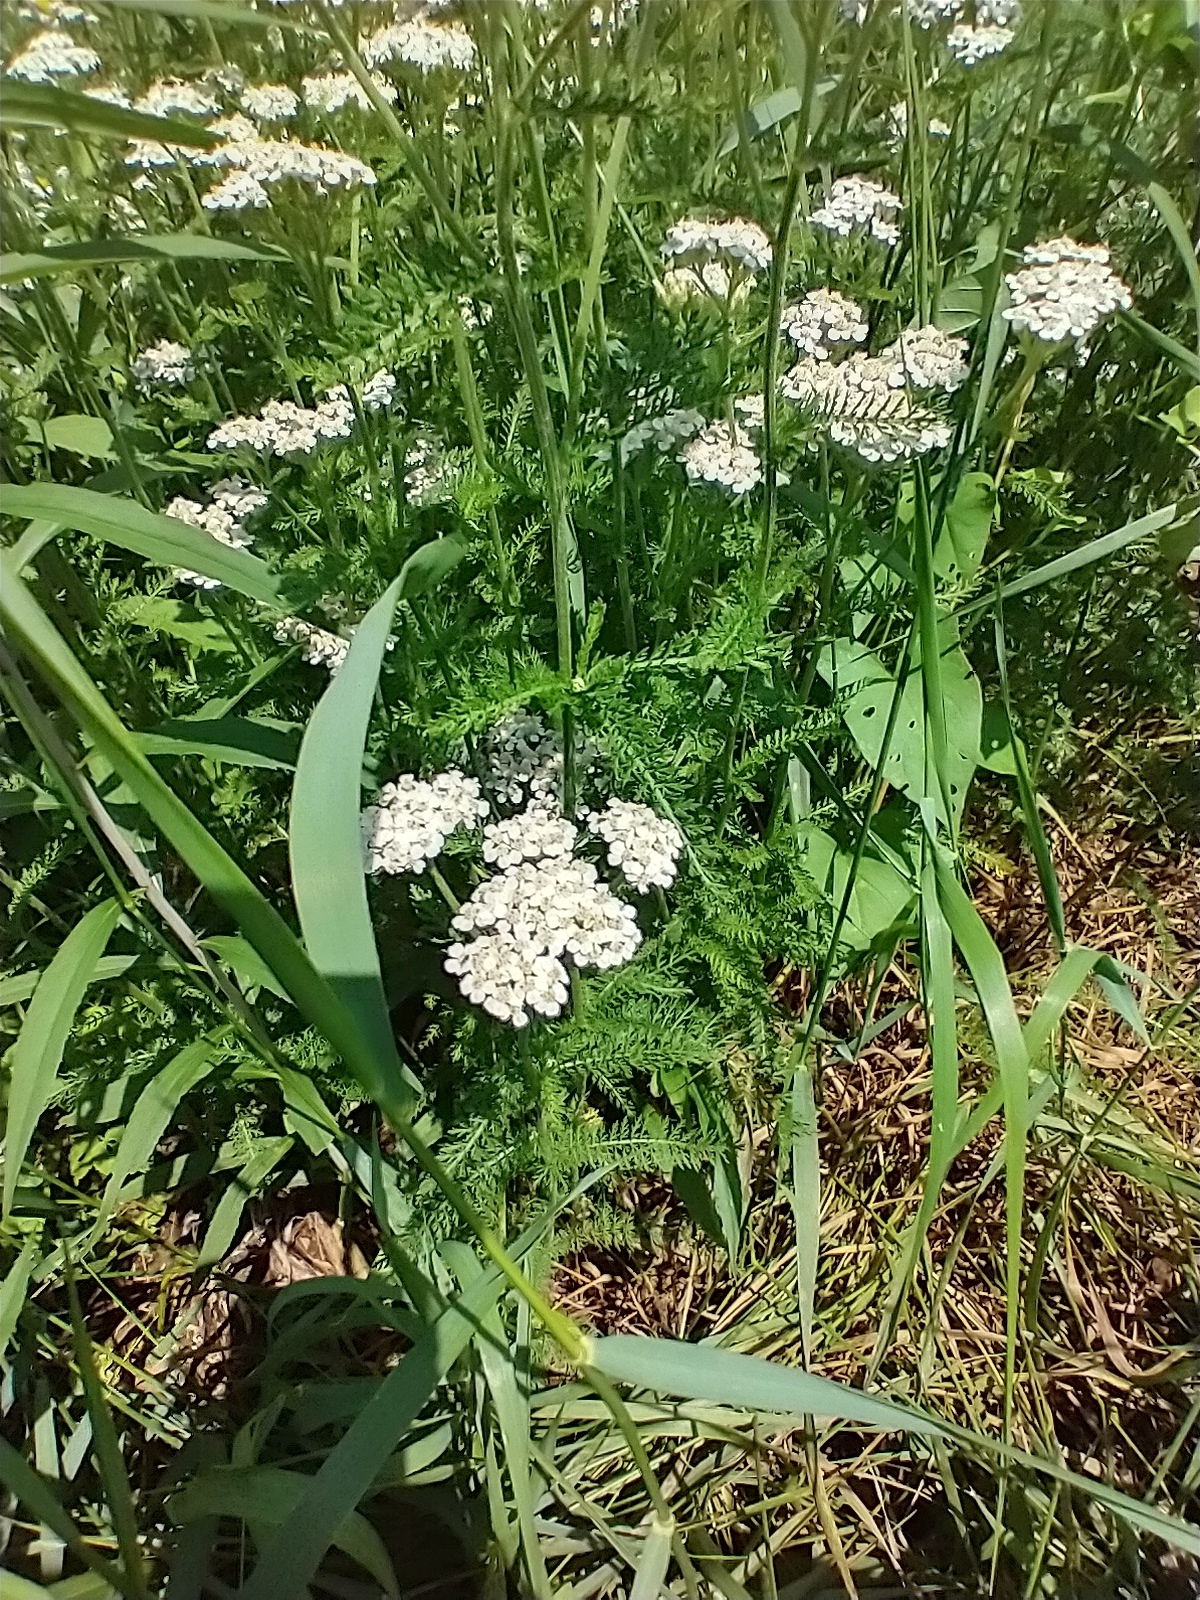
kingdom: Plantae
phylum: Tracheophyta
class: Magnoliopsida
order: Asterales
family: Asteraceae
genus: Achillea
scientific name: Achillea millefolium
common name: Yarrow
